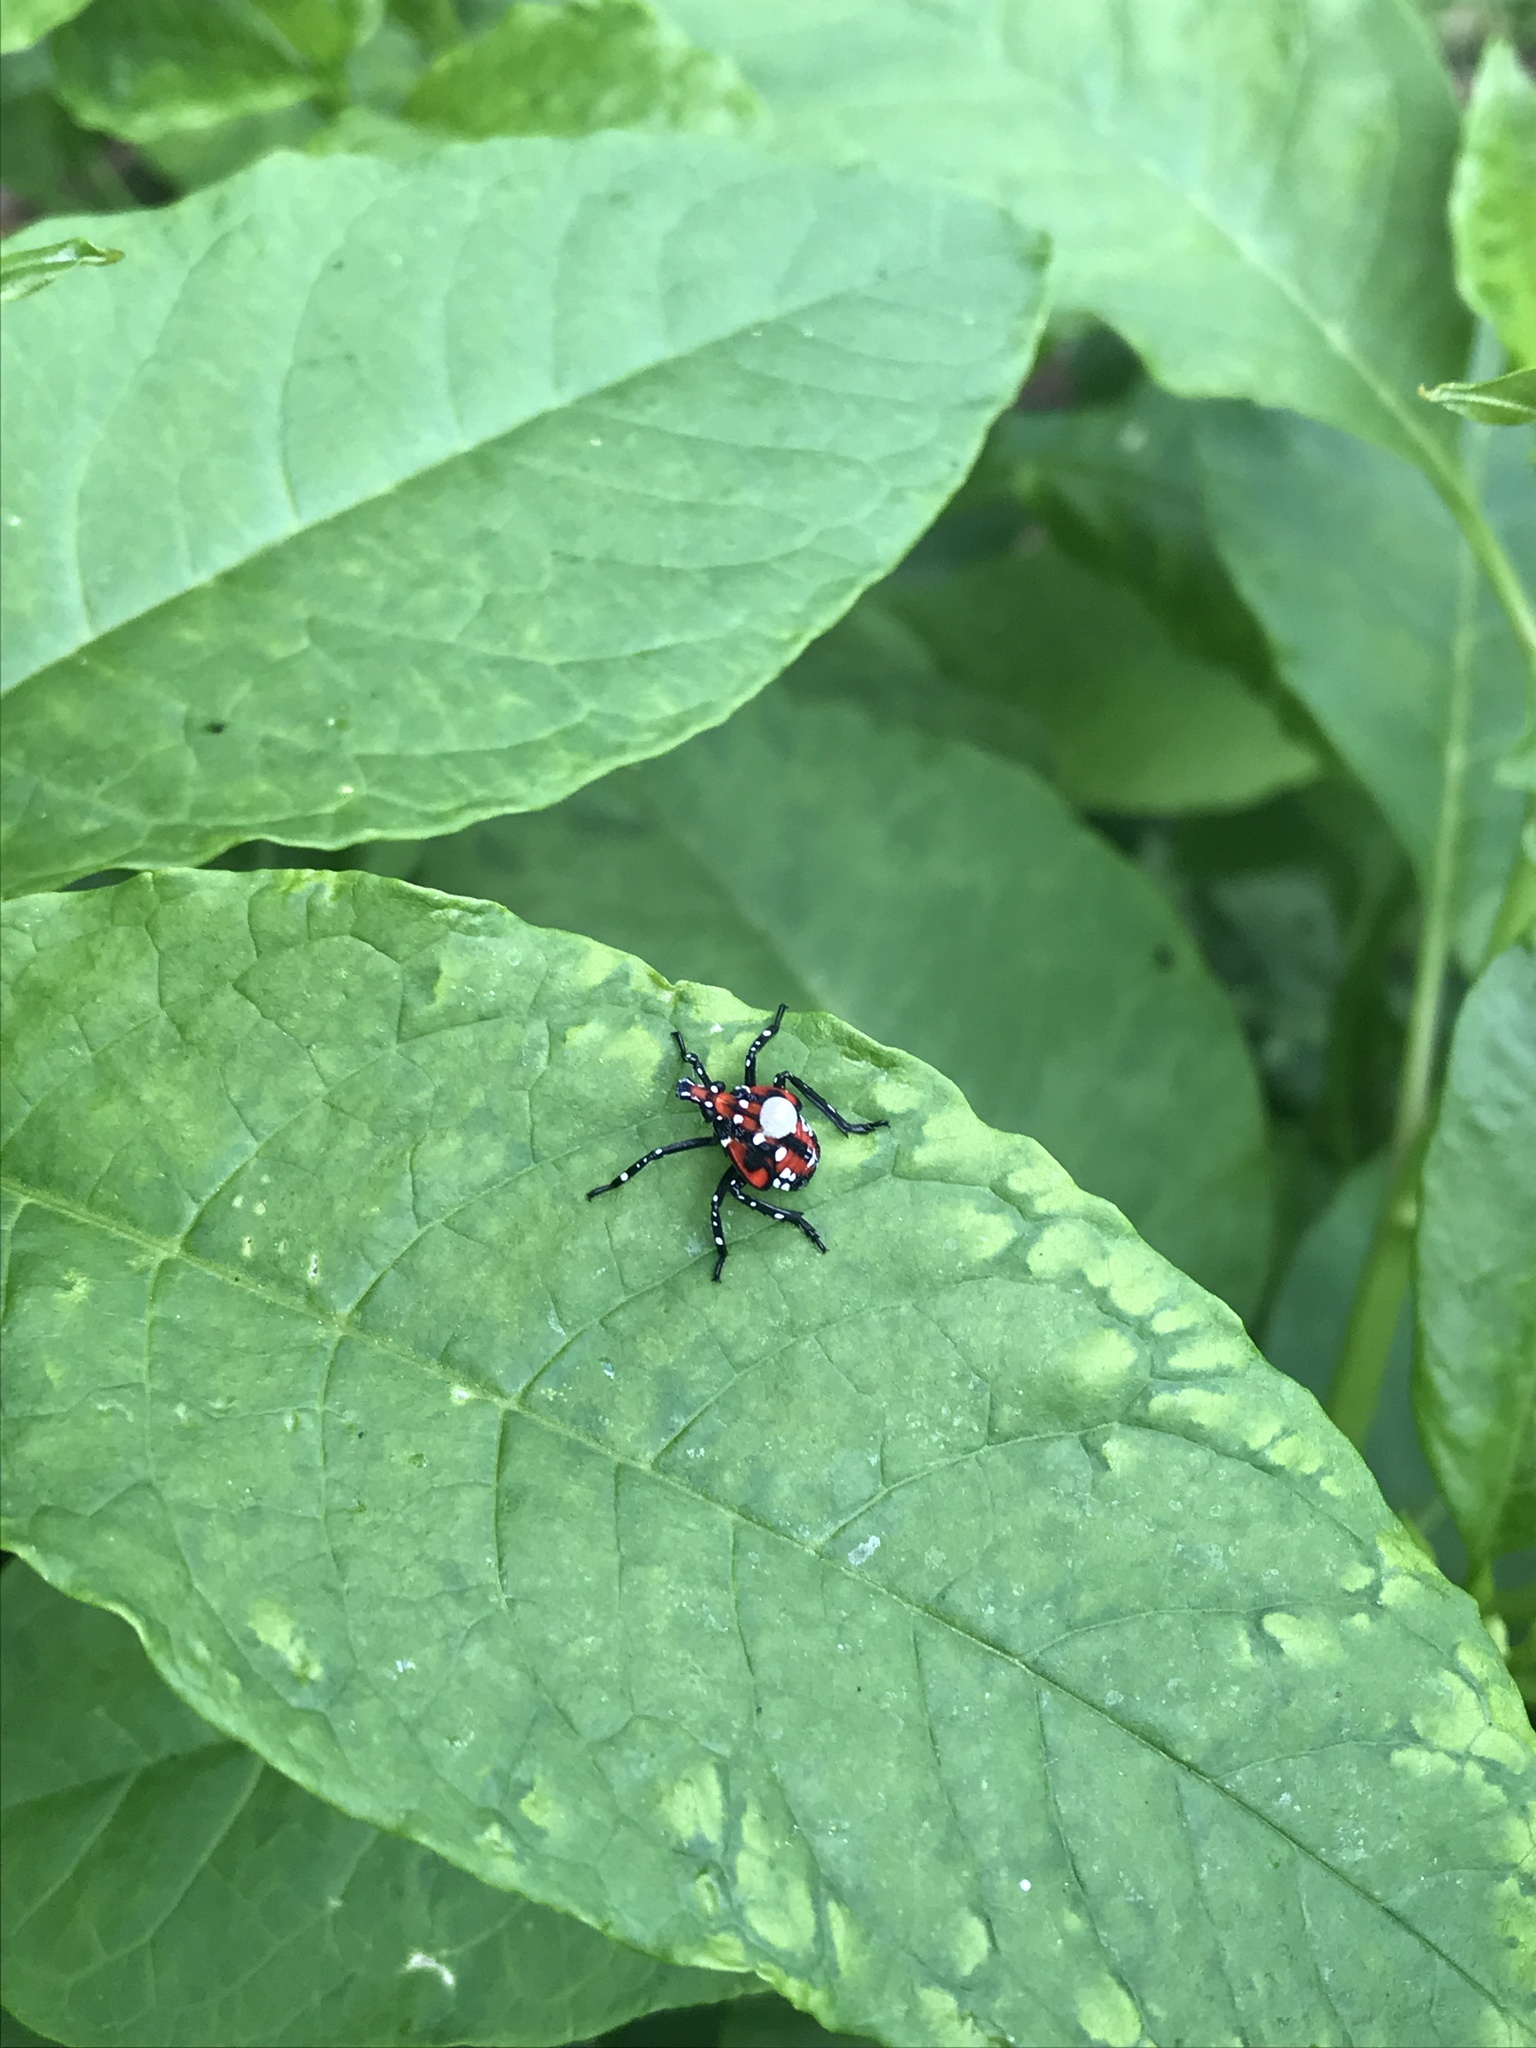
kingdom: Animalia
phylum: Arthropoda
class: Insecta
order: Hemiptera
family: Fulgoridae
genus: Lycorma
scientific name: Lycorma delicatula
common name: Spotted lanternfly
